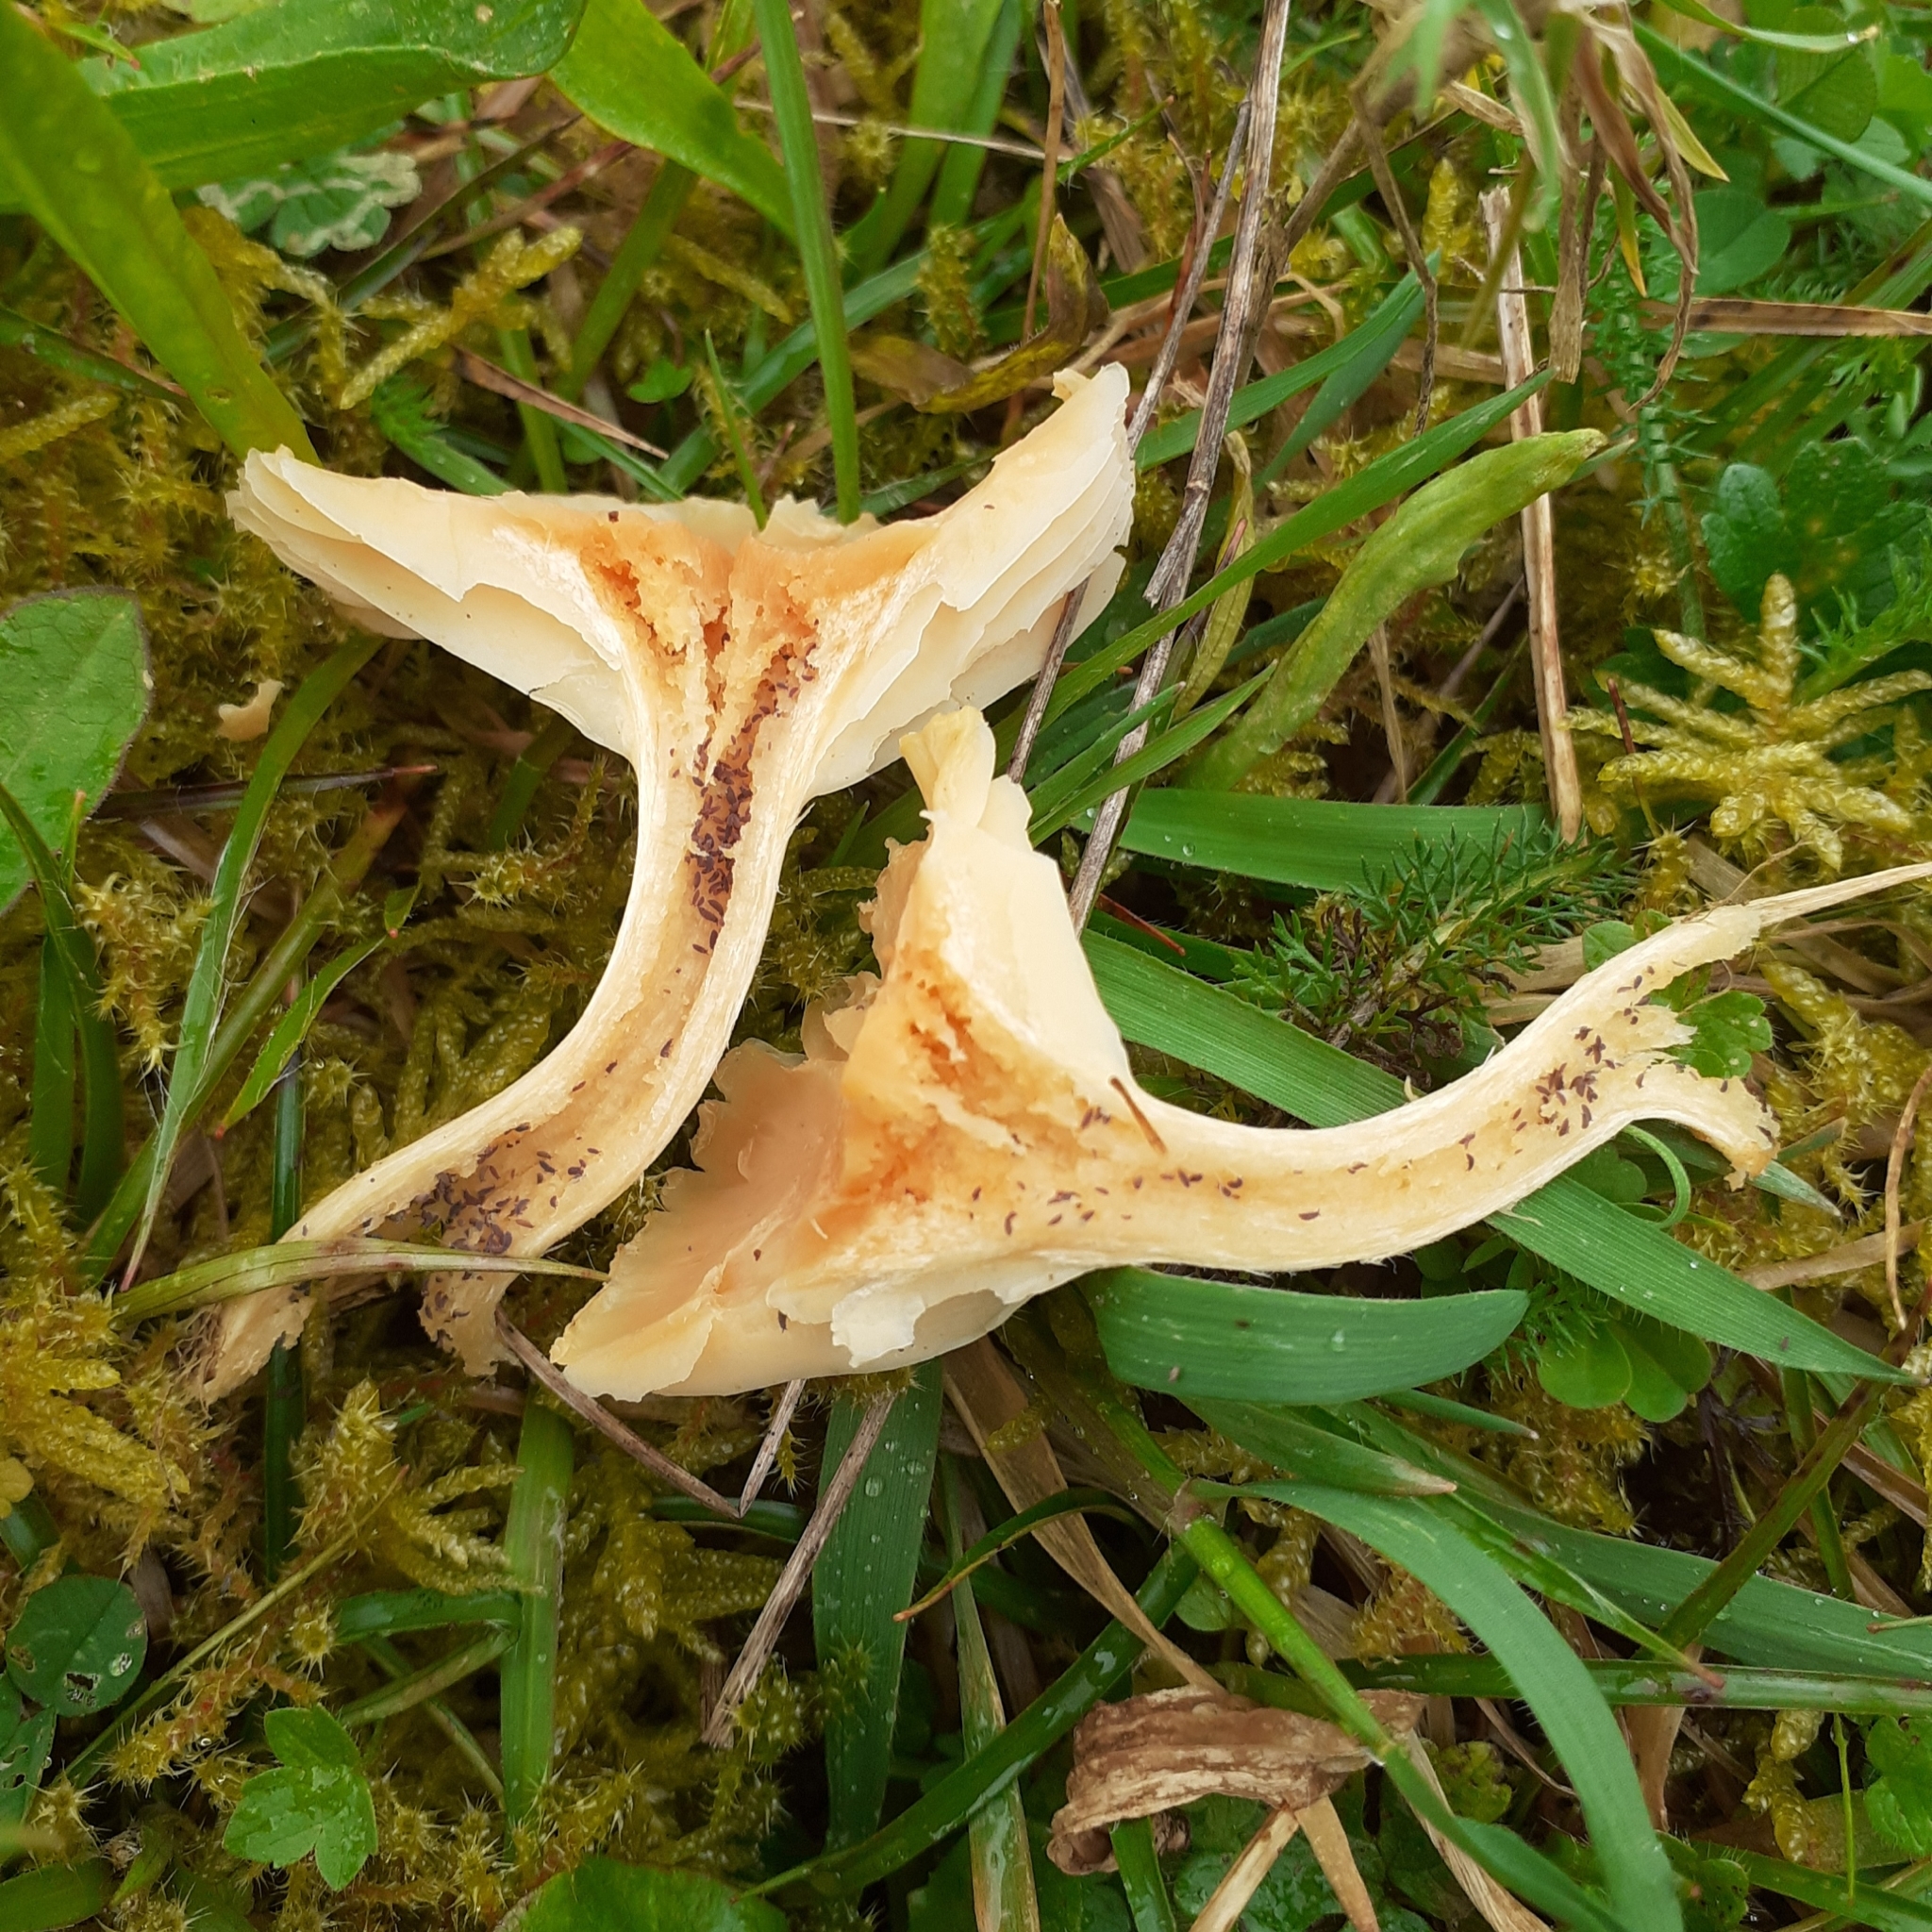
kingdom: Fungi
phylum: Basidiomycota
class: Agaricomycetes
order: Agaricales
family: Hygrophoraceae
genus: Cuphophyllus
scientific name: Cuphophyllus pratensis
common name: Meadow waxcap
